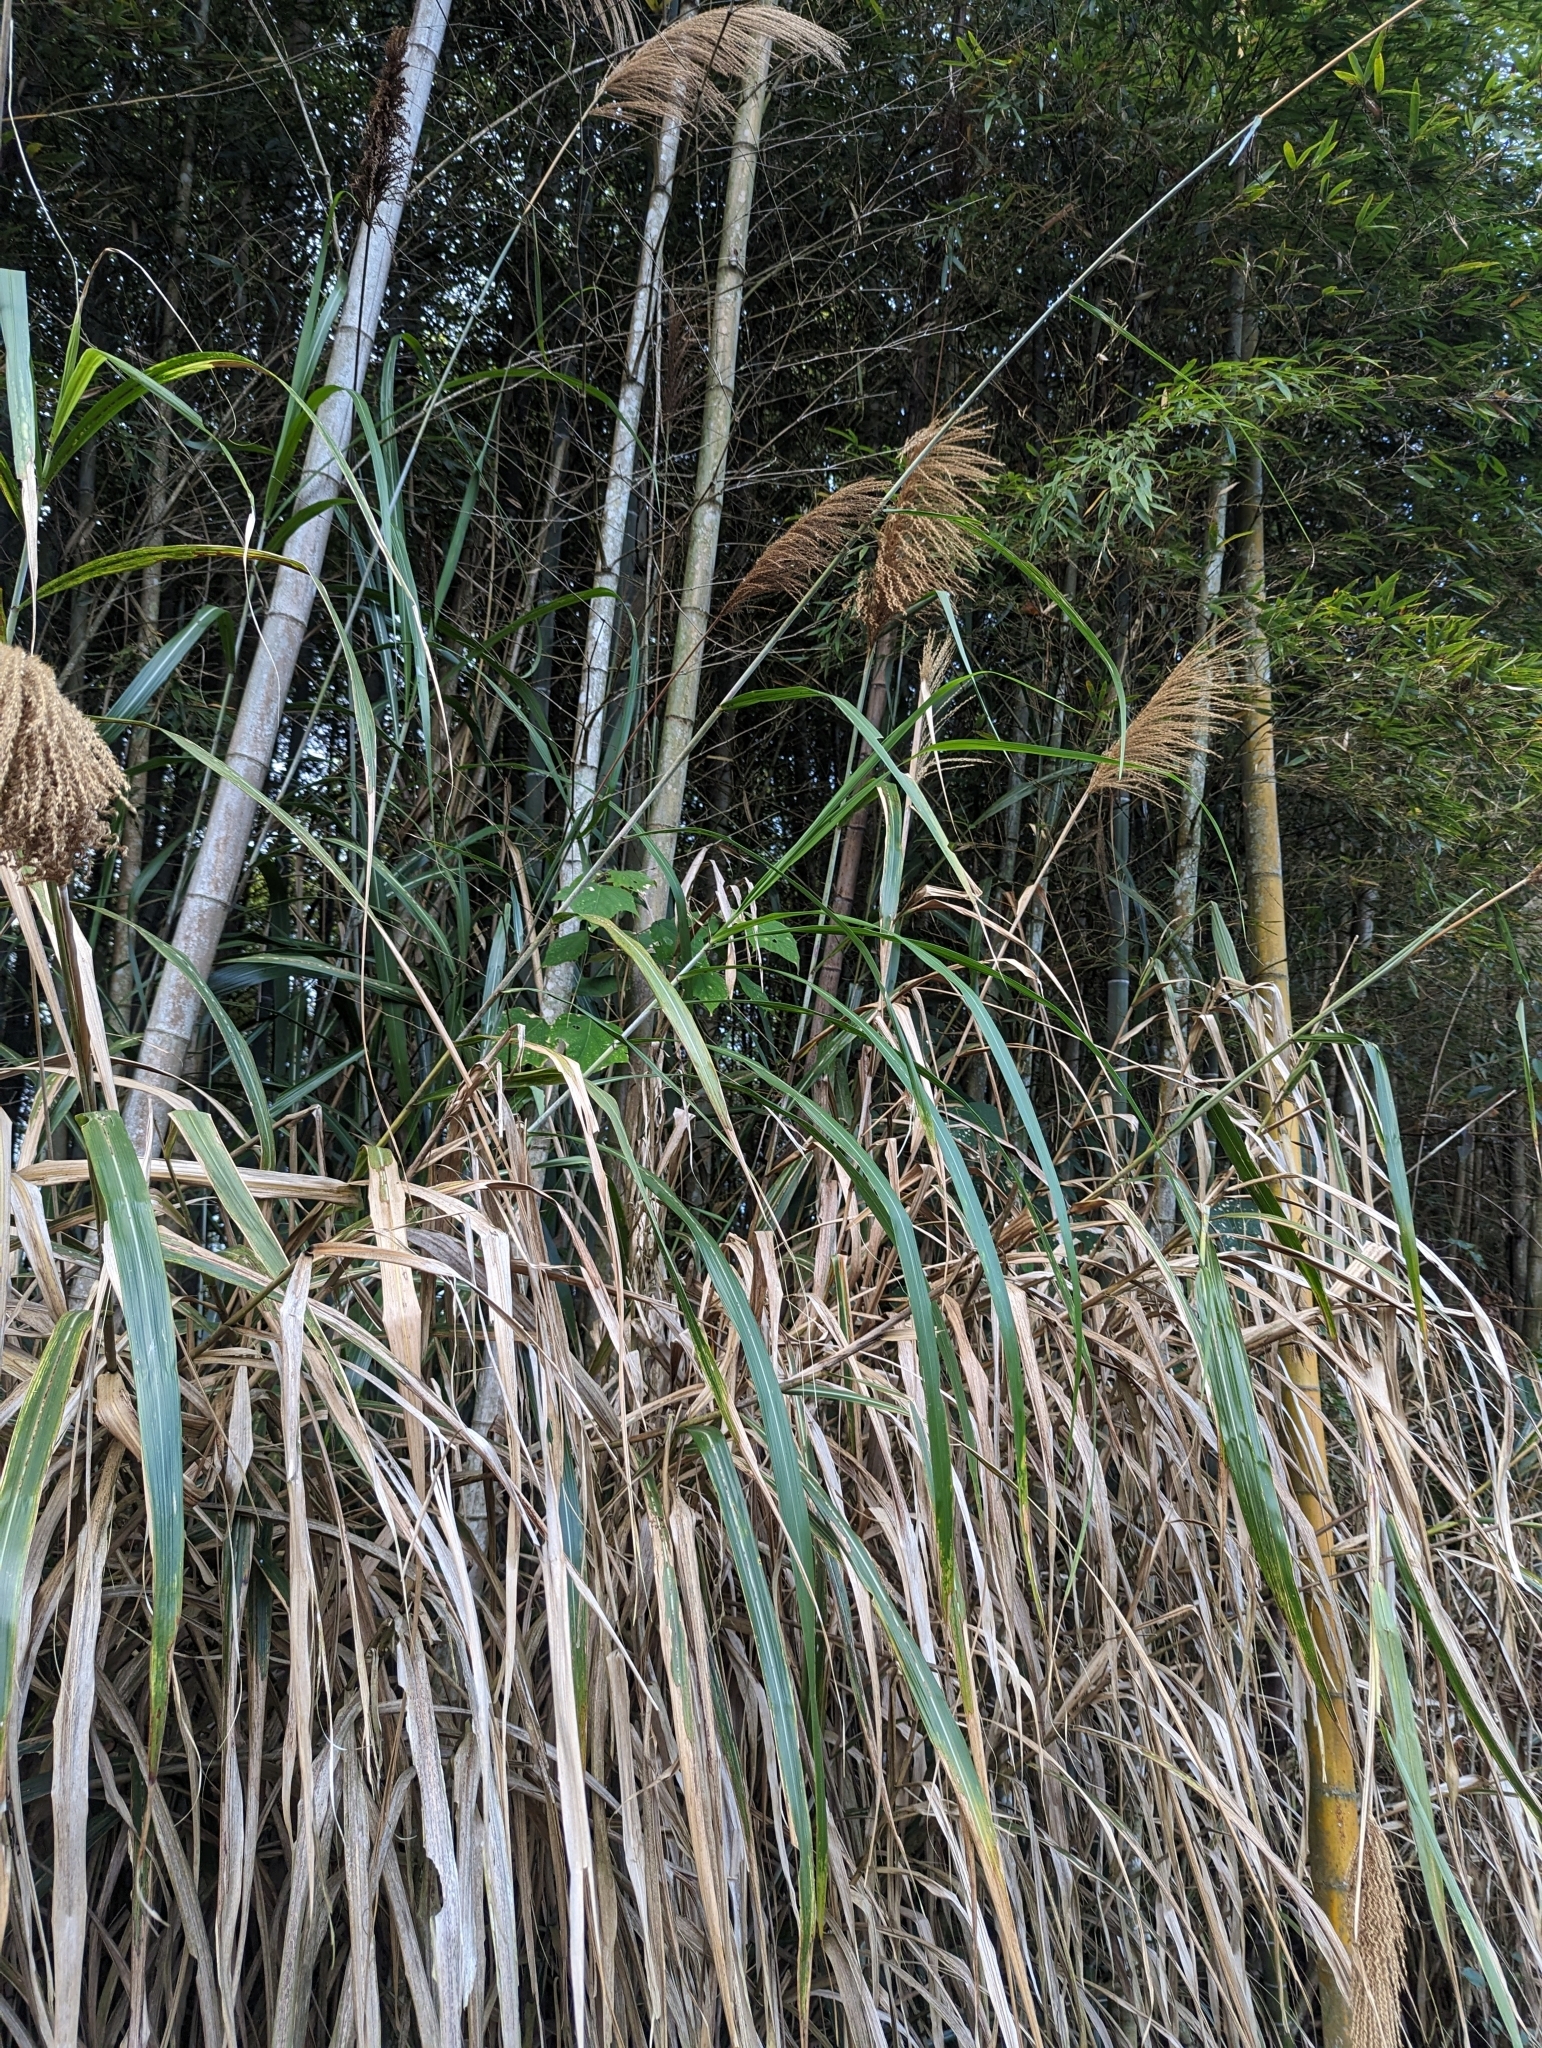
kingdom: Plantae
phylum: Tracheophyta
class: Liliopsida
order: Poales
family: Poaceae
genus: Miscanthus
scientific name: Miscanthus sinensis
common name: Chinese silvergrass
